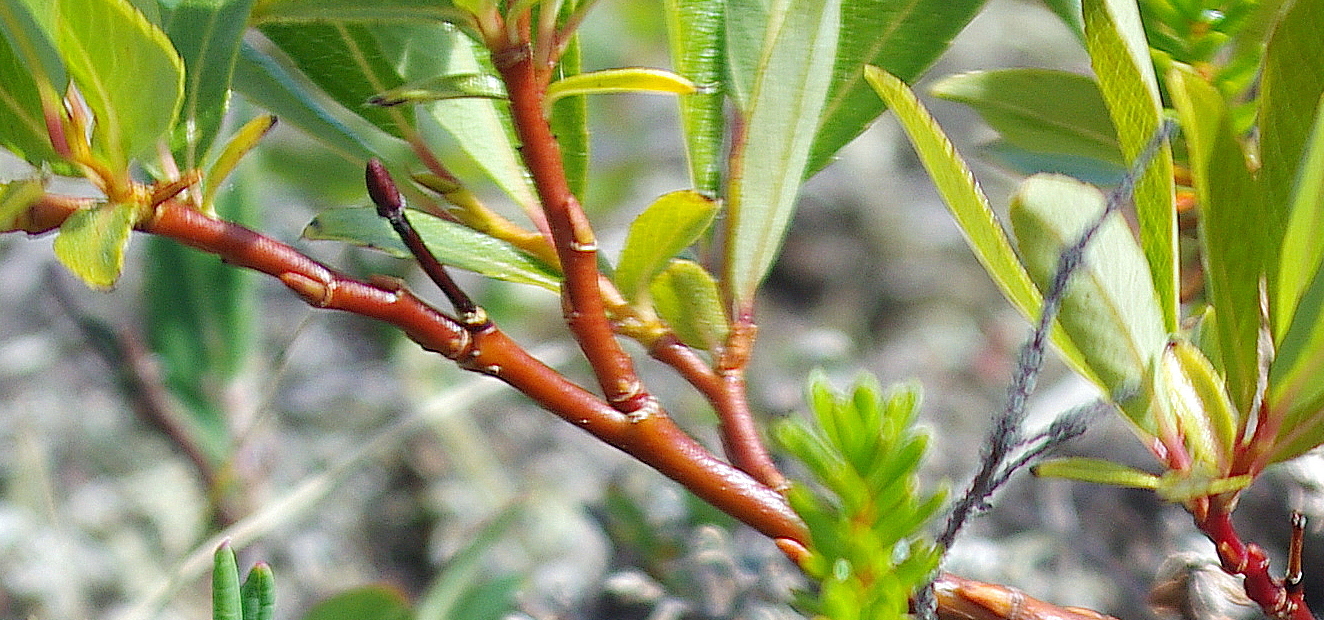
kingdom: Plantae
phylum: Tracheophyta
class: Magnoliopsida
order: Malpighiales
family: Salicaceae
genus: Salix
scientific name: Salix phylicifolia
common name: Tea-leaved willow
